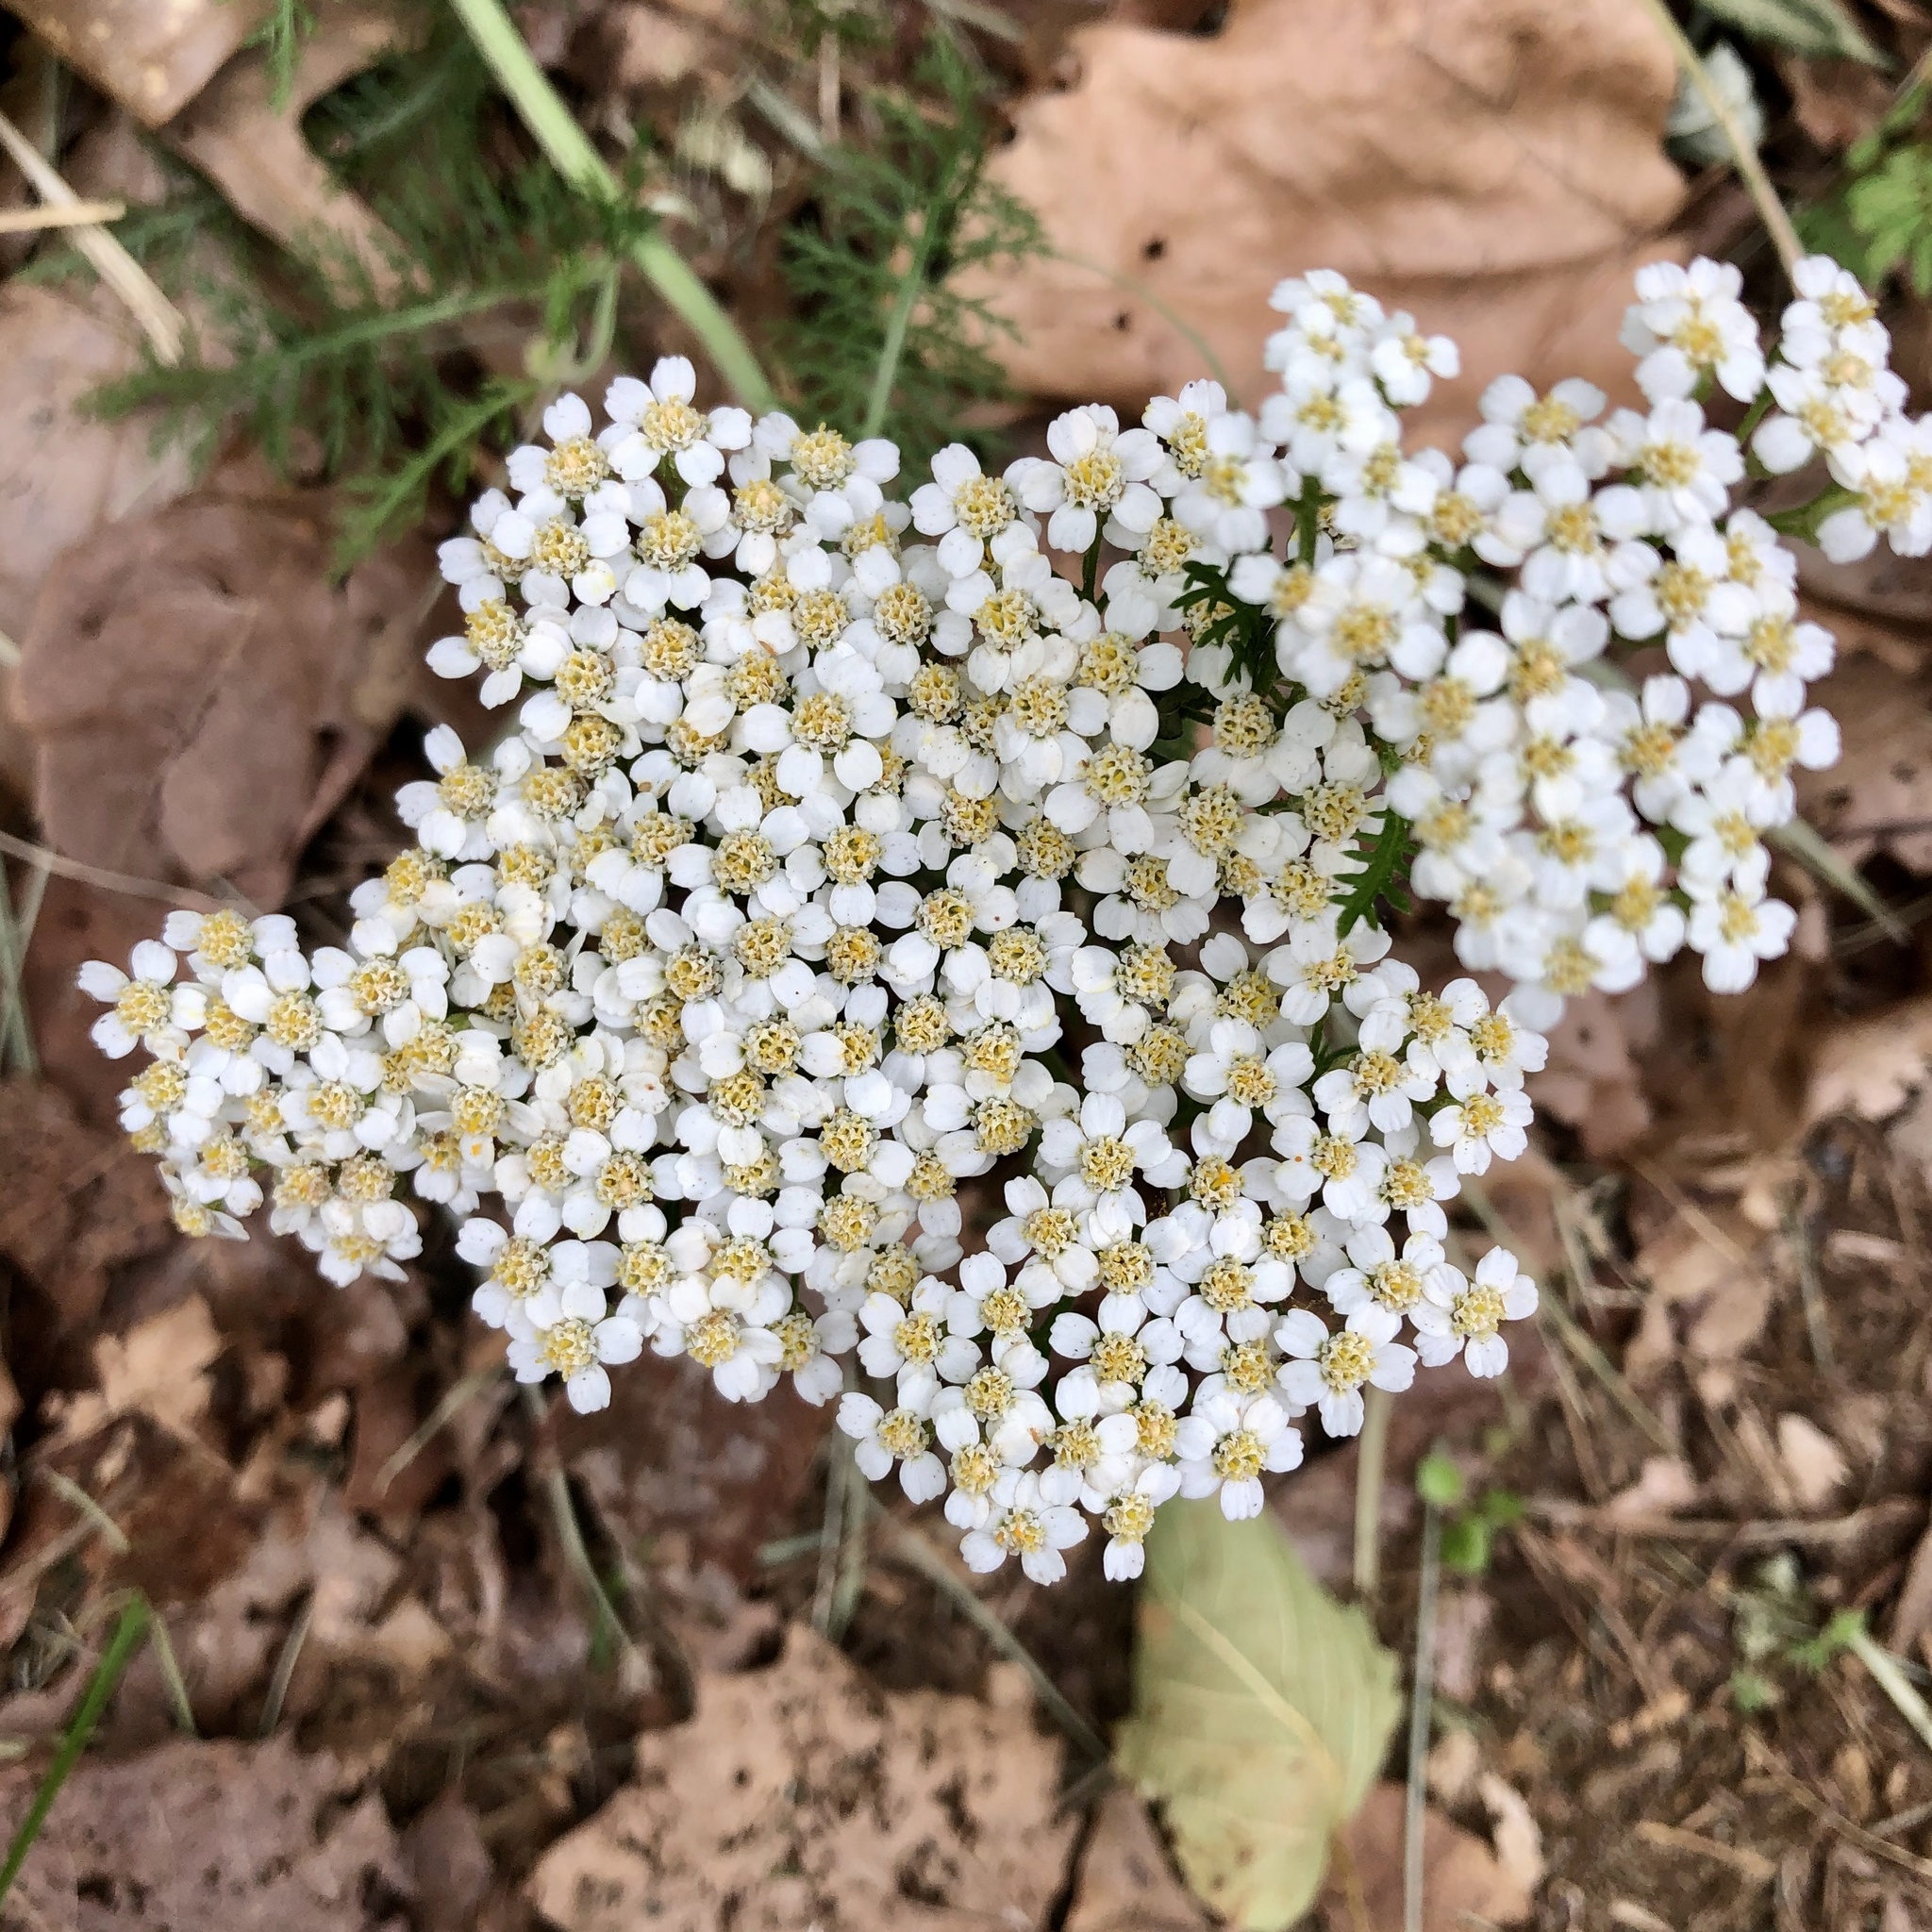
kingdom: Plantae
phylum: Tracheophyta
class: Magnoliopsida
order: Asterales
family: Asteraceae
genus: Achillea
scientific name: Achillea millefolium
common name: Yarrow
